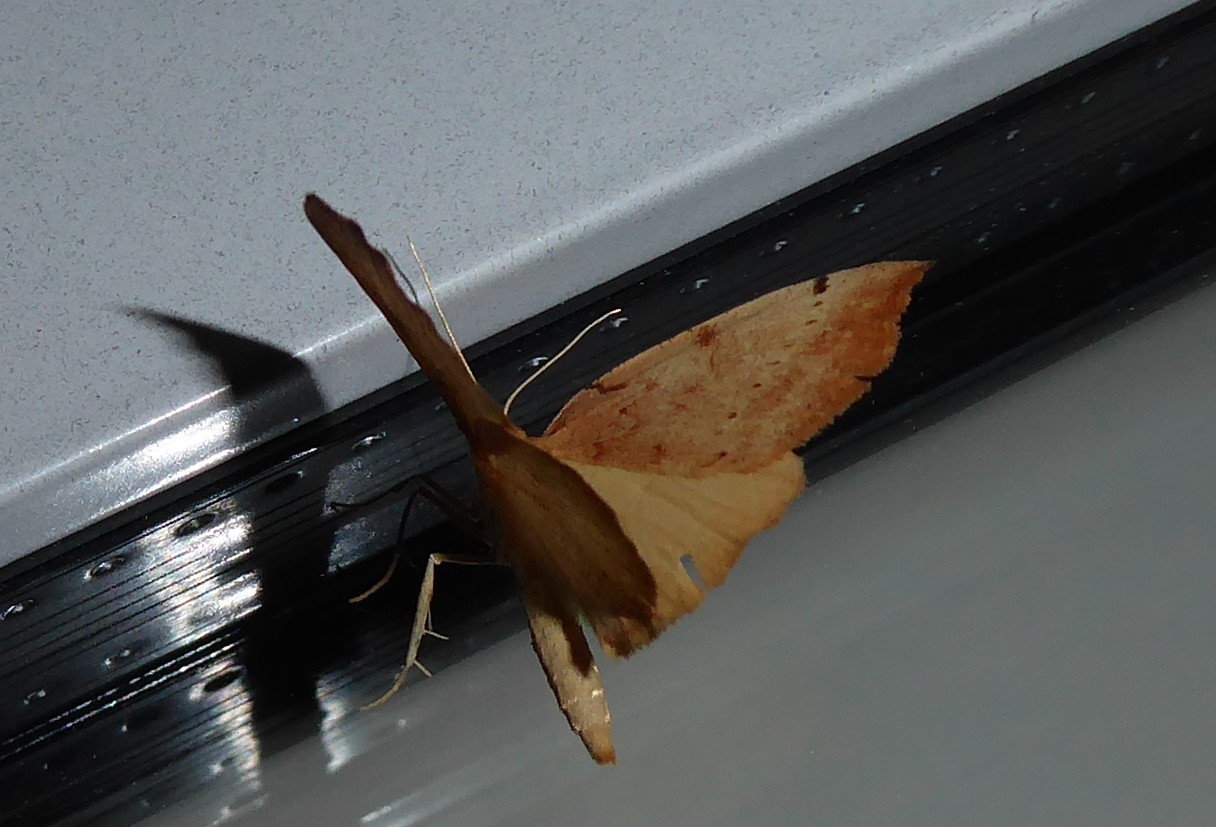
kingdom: Animalia
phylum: Arthropoda
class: Insecta
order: Lepidoptera
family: Geometridae
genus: Sestra
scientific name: Sestra humeraria
